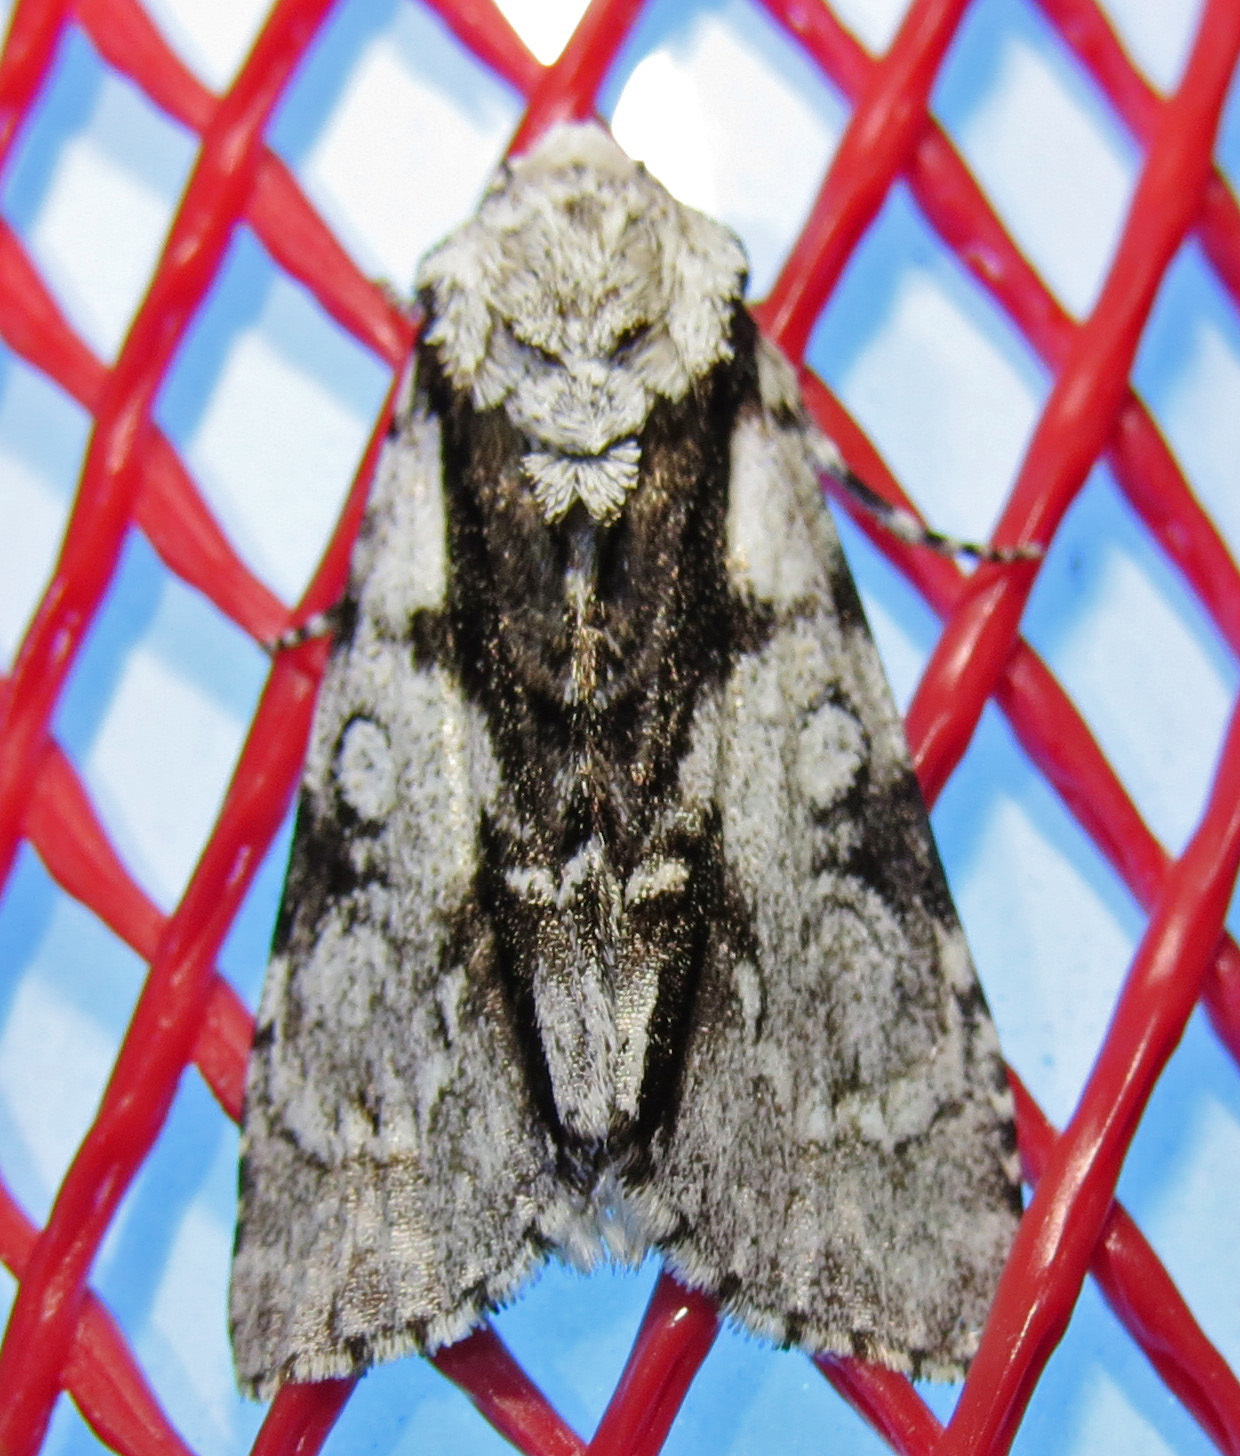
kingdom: Animalia
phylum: Arthropoda
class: Insecta
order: Lepidoptera
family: Noctuidae
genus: Acronicta
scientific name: Acronicta funeralis
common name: Funerary dagger
